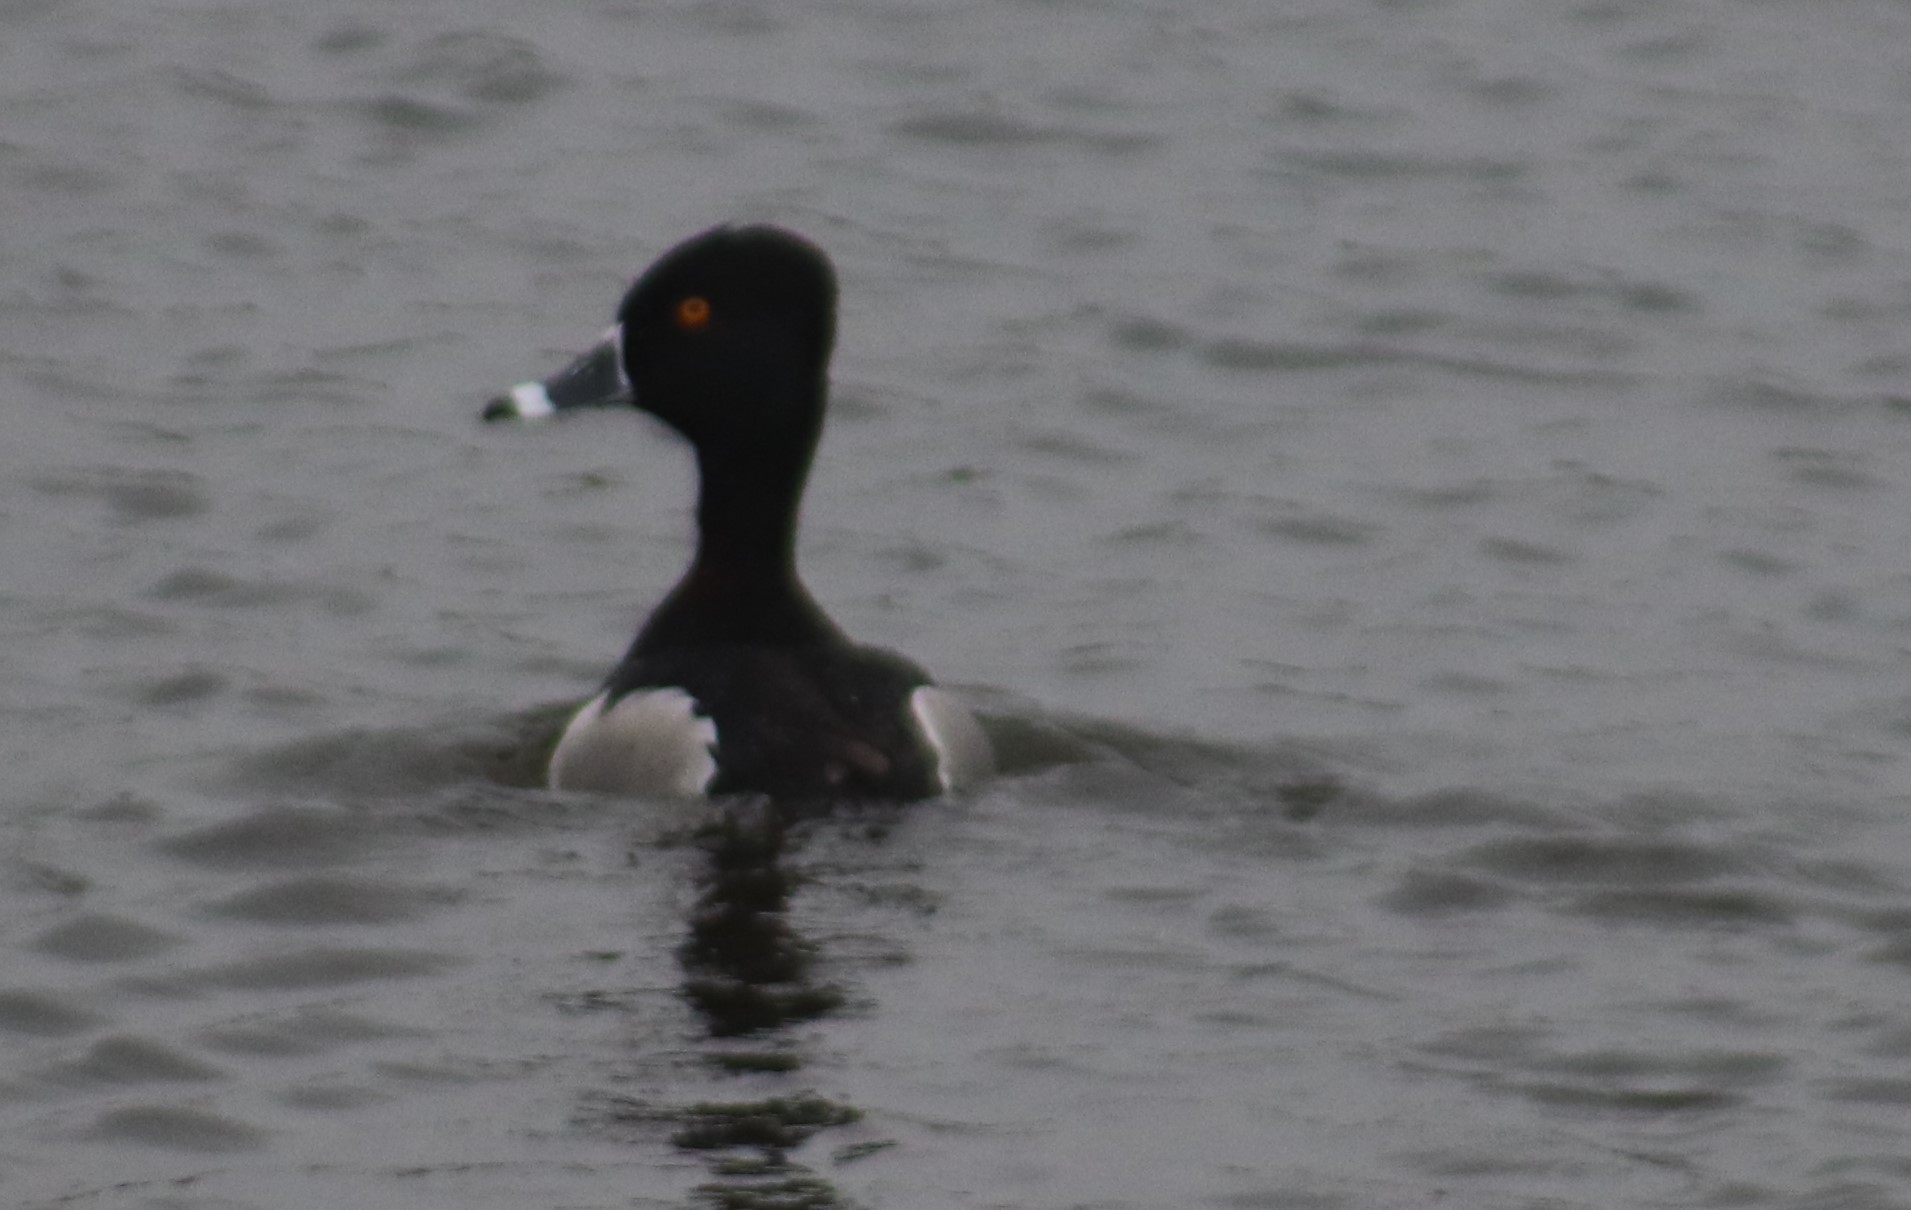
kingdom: Animalia
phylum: Chordata
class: Aves
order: Anseriformes
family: Anatidae
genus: Aythya
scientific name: Aythya collaris
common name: Ring-necked duck
